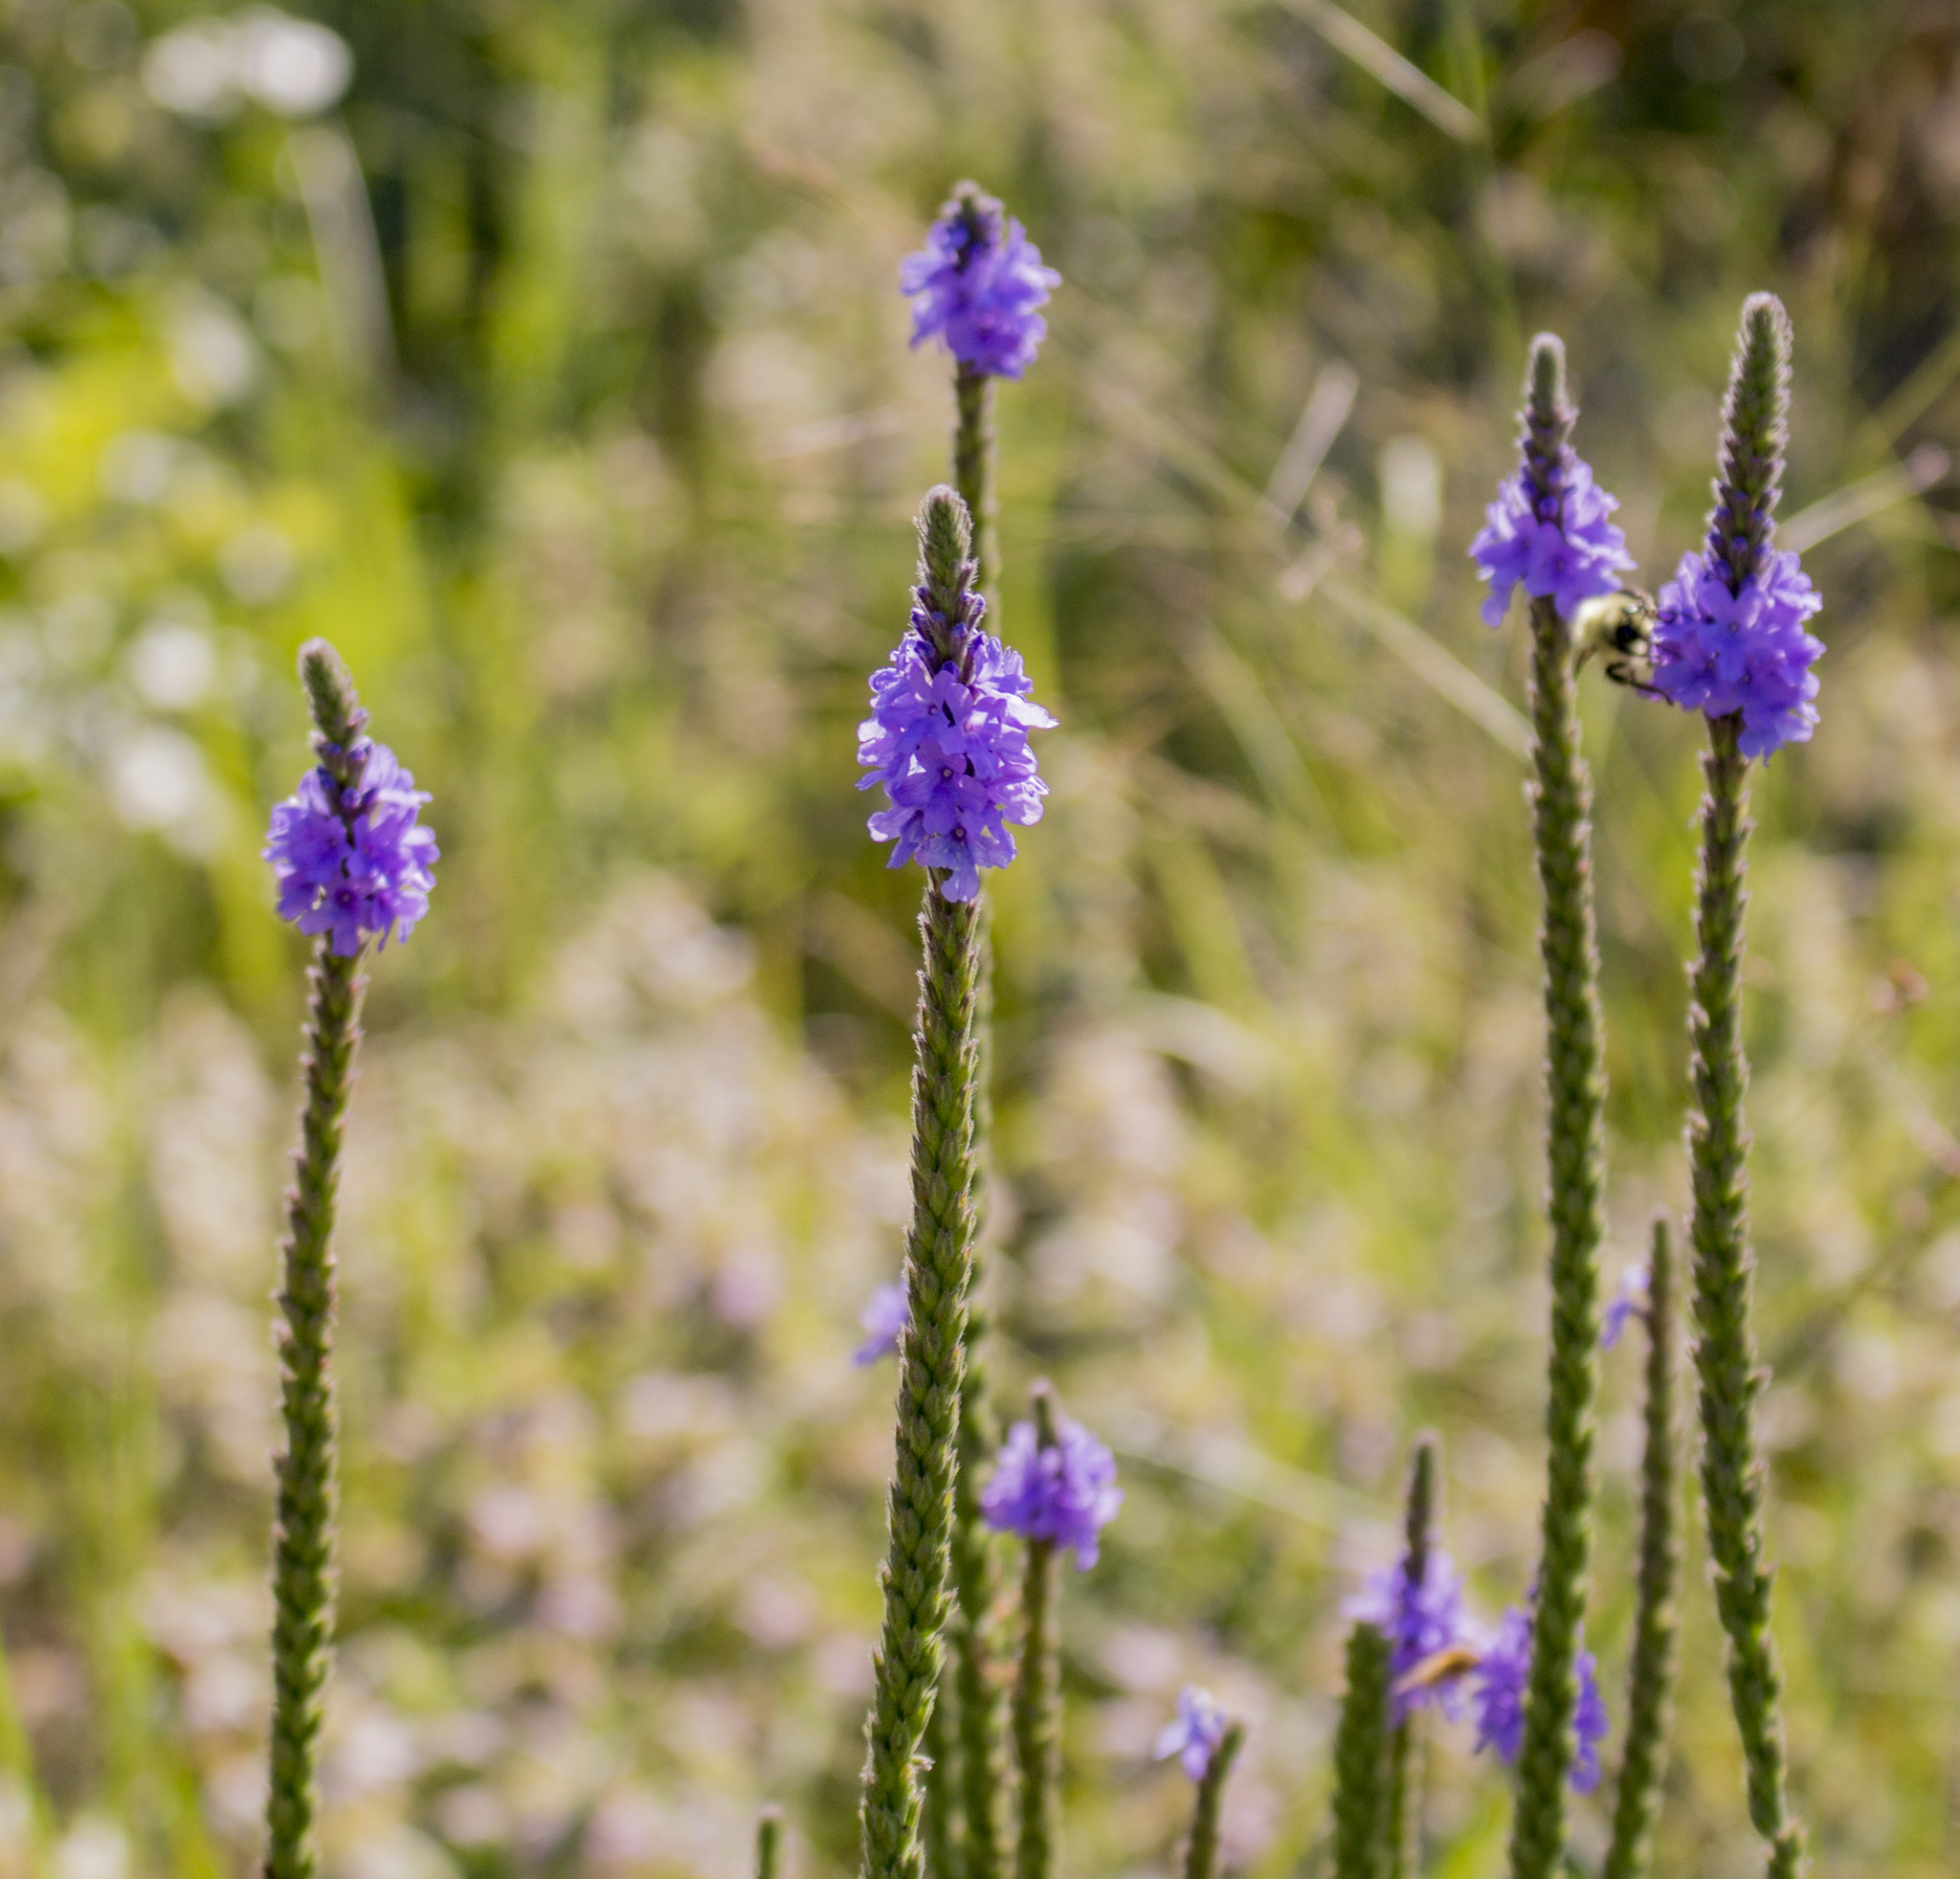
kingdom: Plantae
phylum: Tracheophyta
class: Magnoliopsida
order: Lamiales
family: Verbenaceae
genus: Verbena
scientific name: Verbena stricta
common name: Hoary vervain
